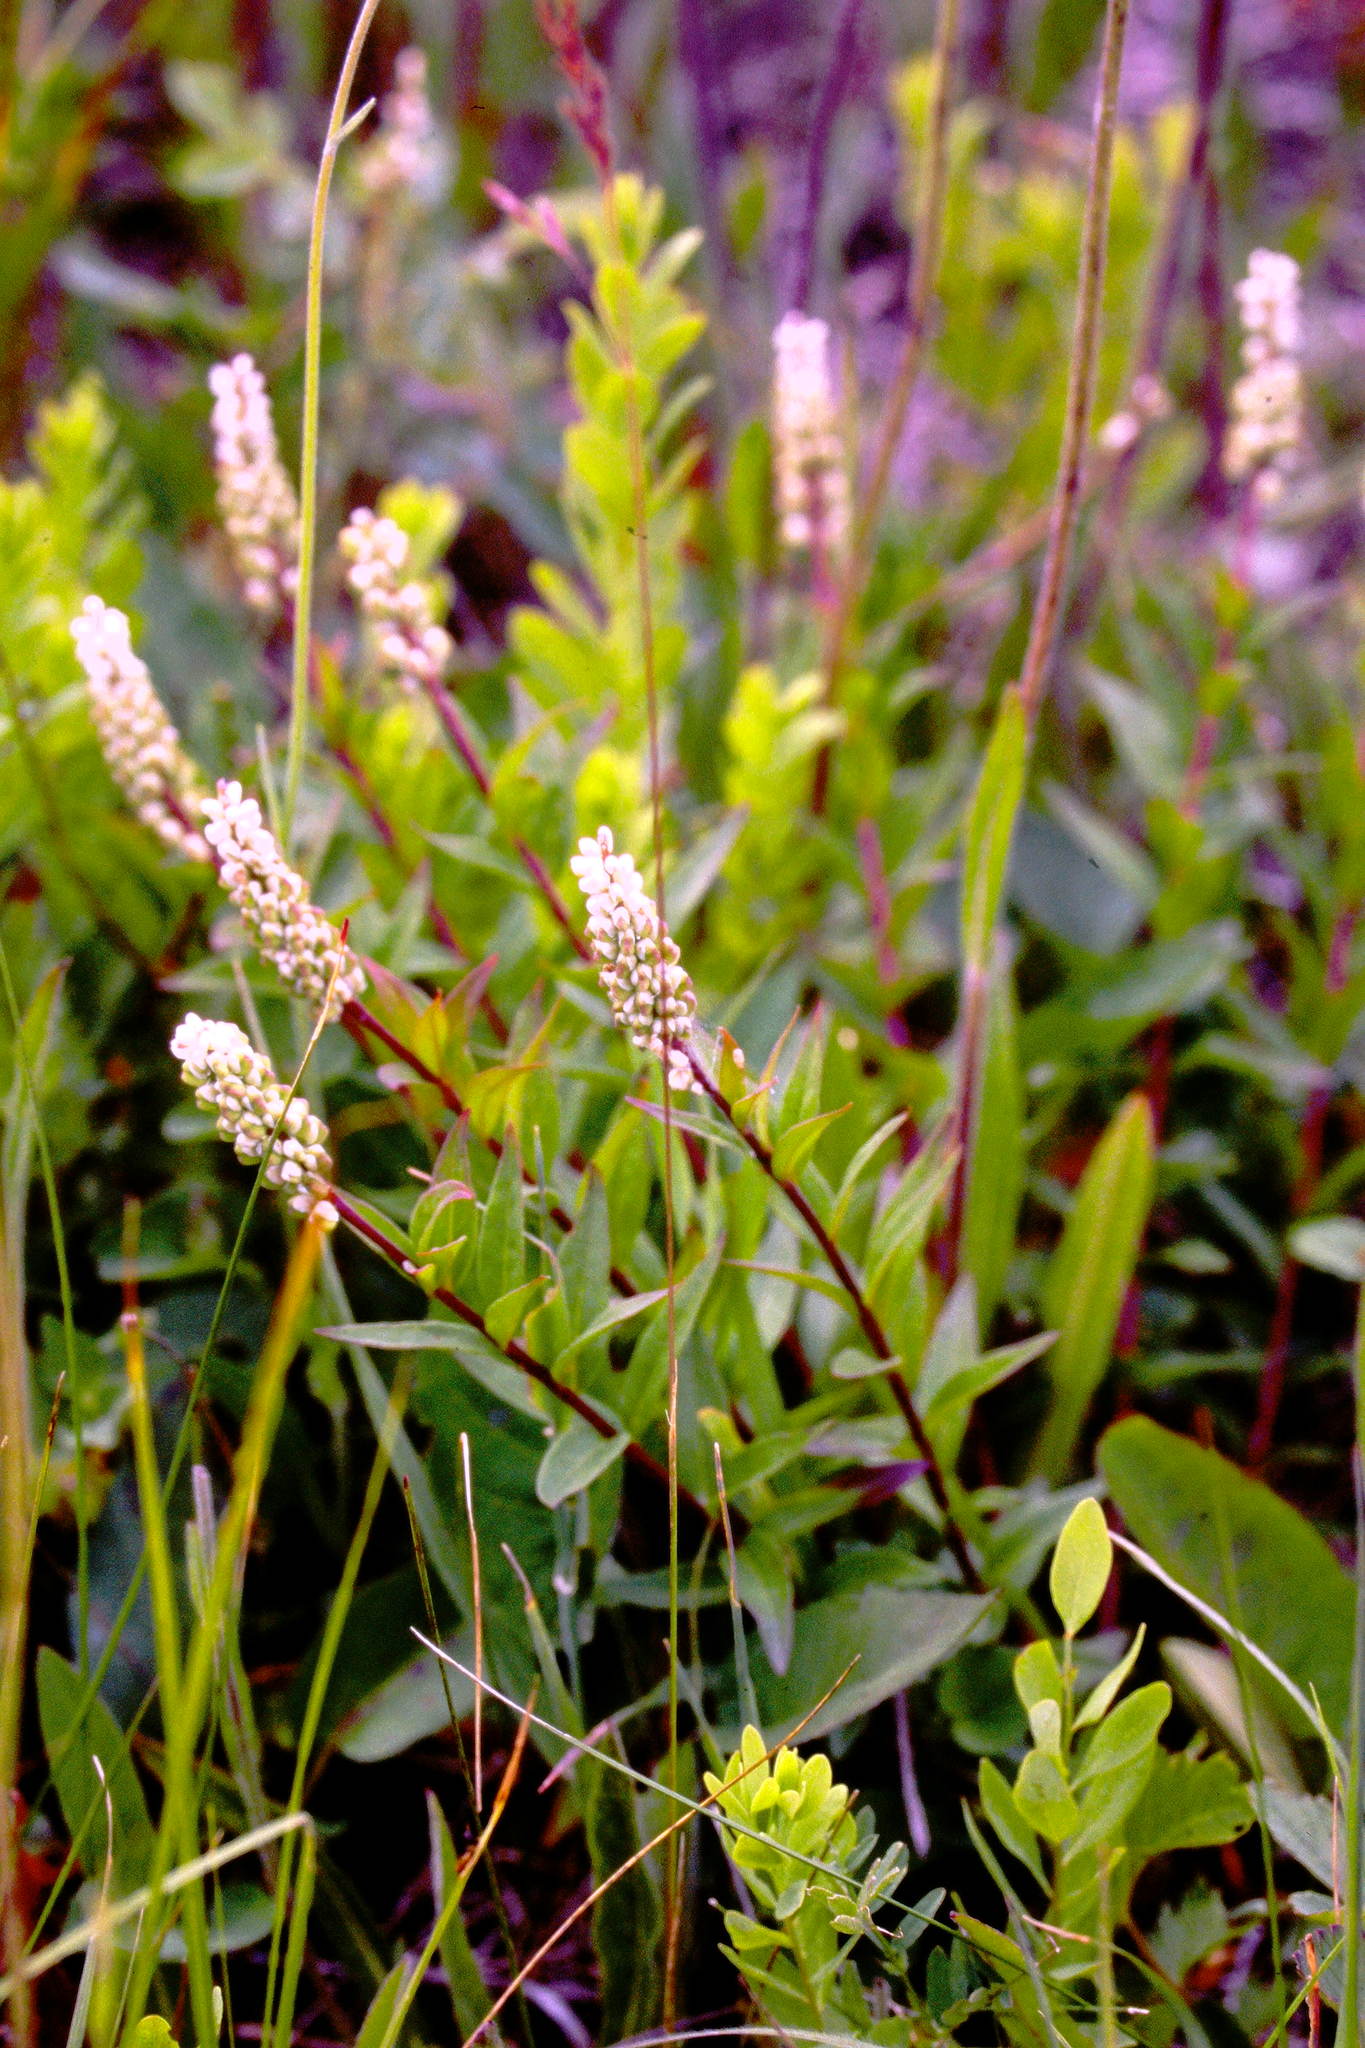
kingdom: Plantae
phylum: Tracheophyta
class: Magnoliopsida
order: Fabales
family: Polygalaceae
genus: Polygala
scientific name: Polygala senega
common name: Seneca snakeroot
